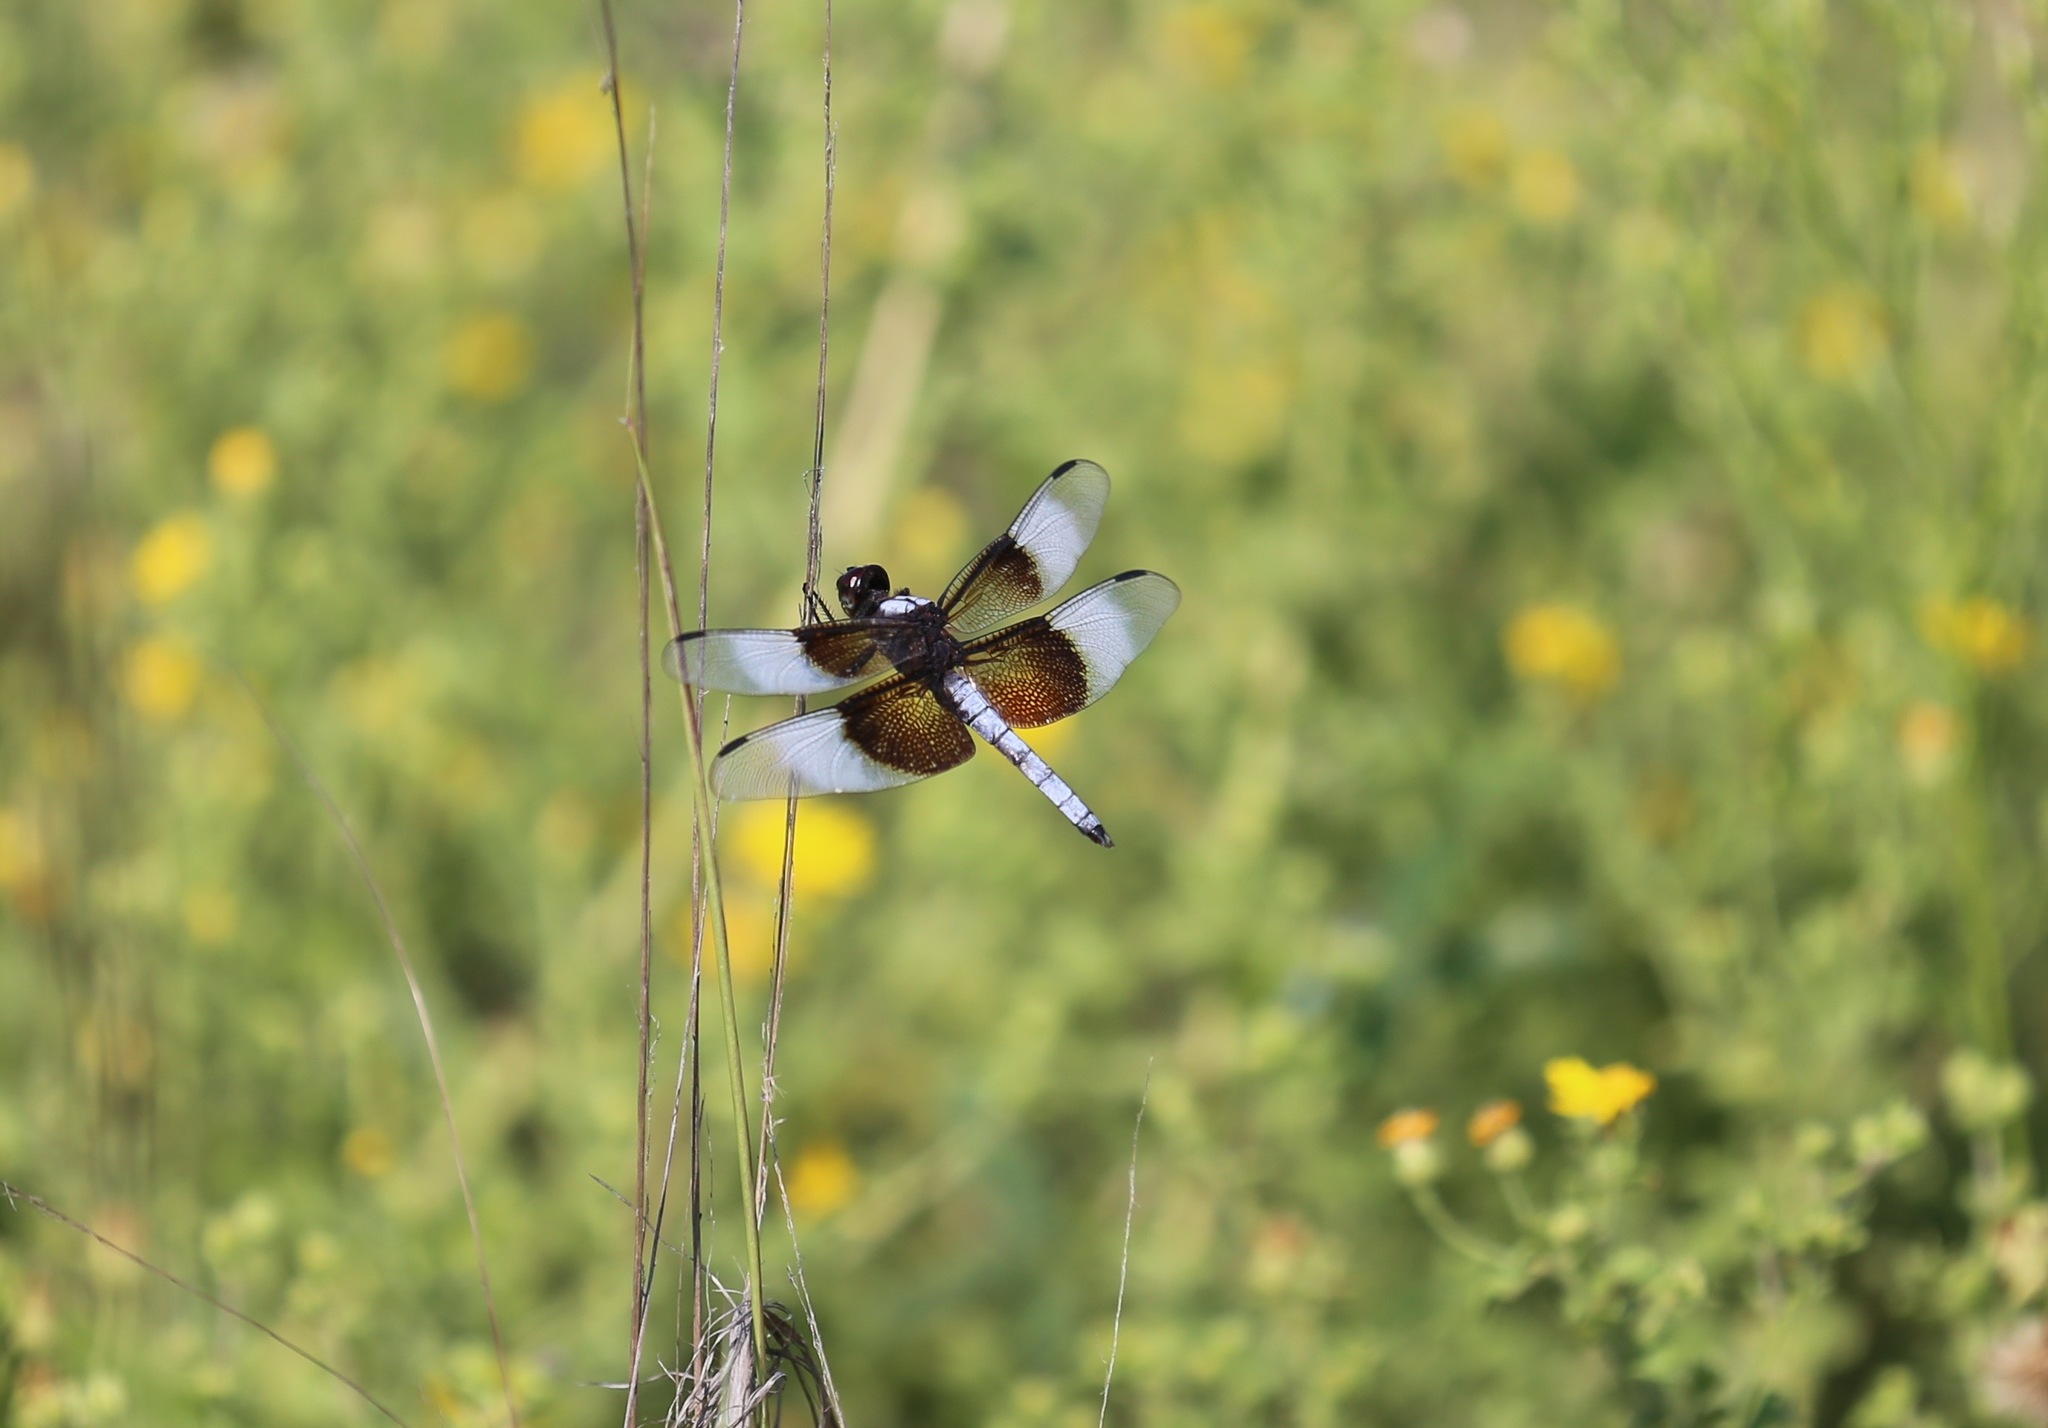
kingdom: Animalia
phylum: Arthropoda
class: Insecta
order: Odonata
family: Libellulidae
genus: Libellula
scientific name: Libellula luctuosa
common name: Widow skimmer
